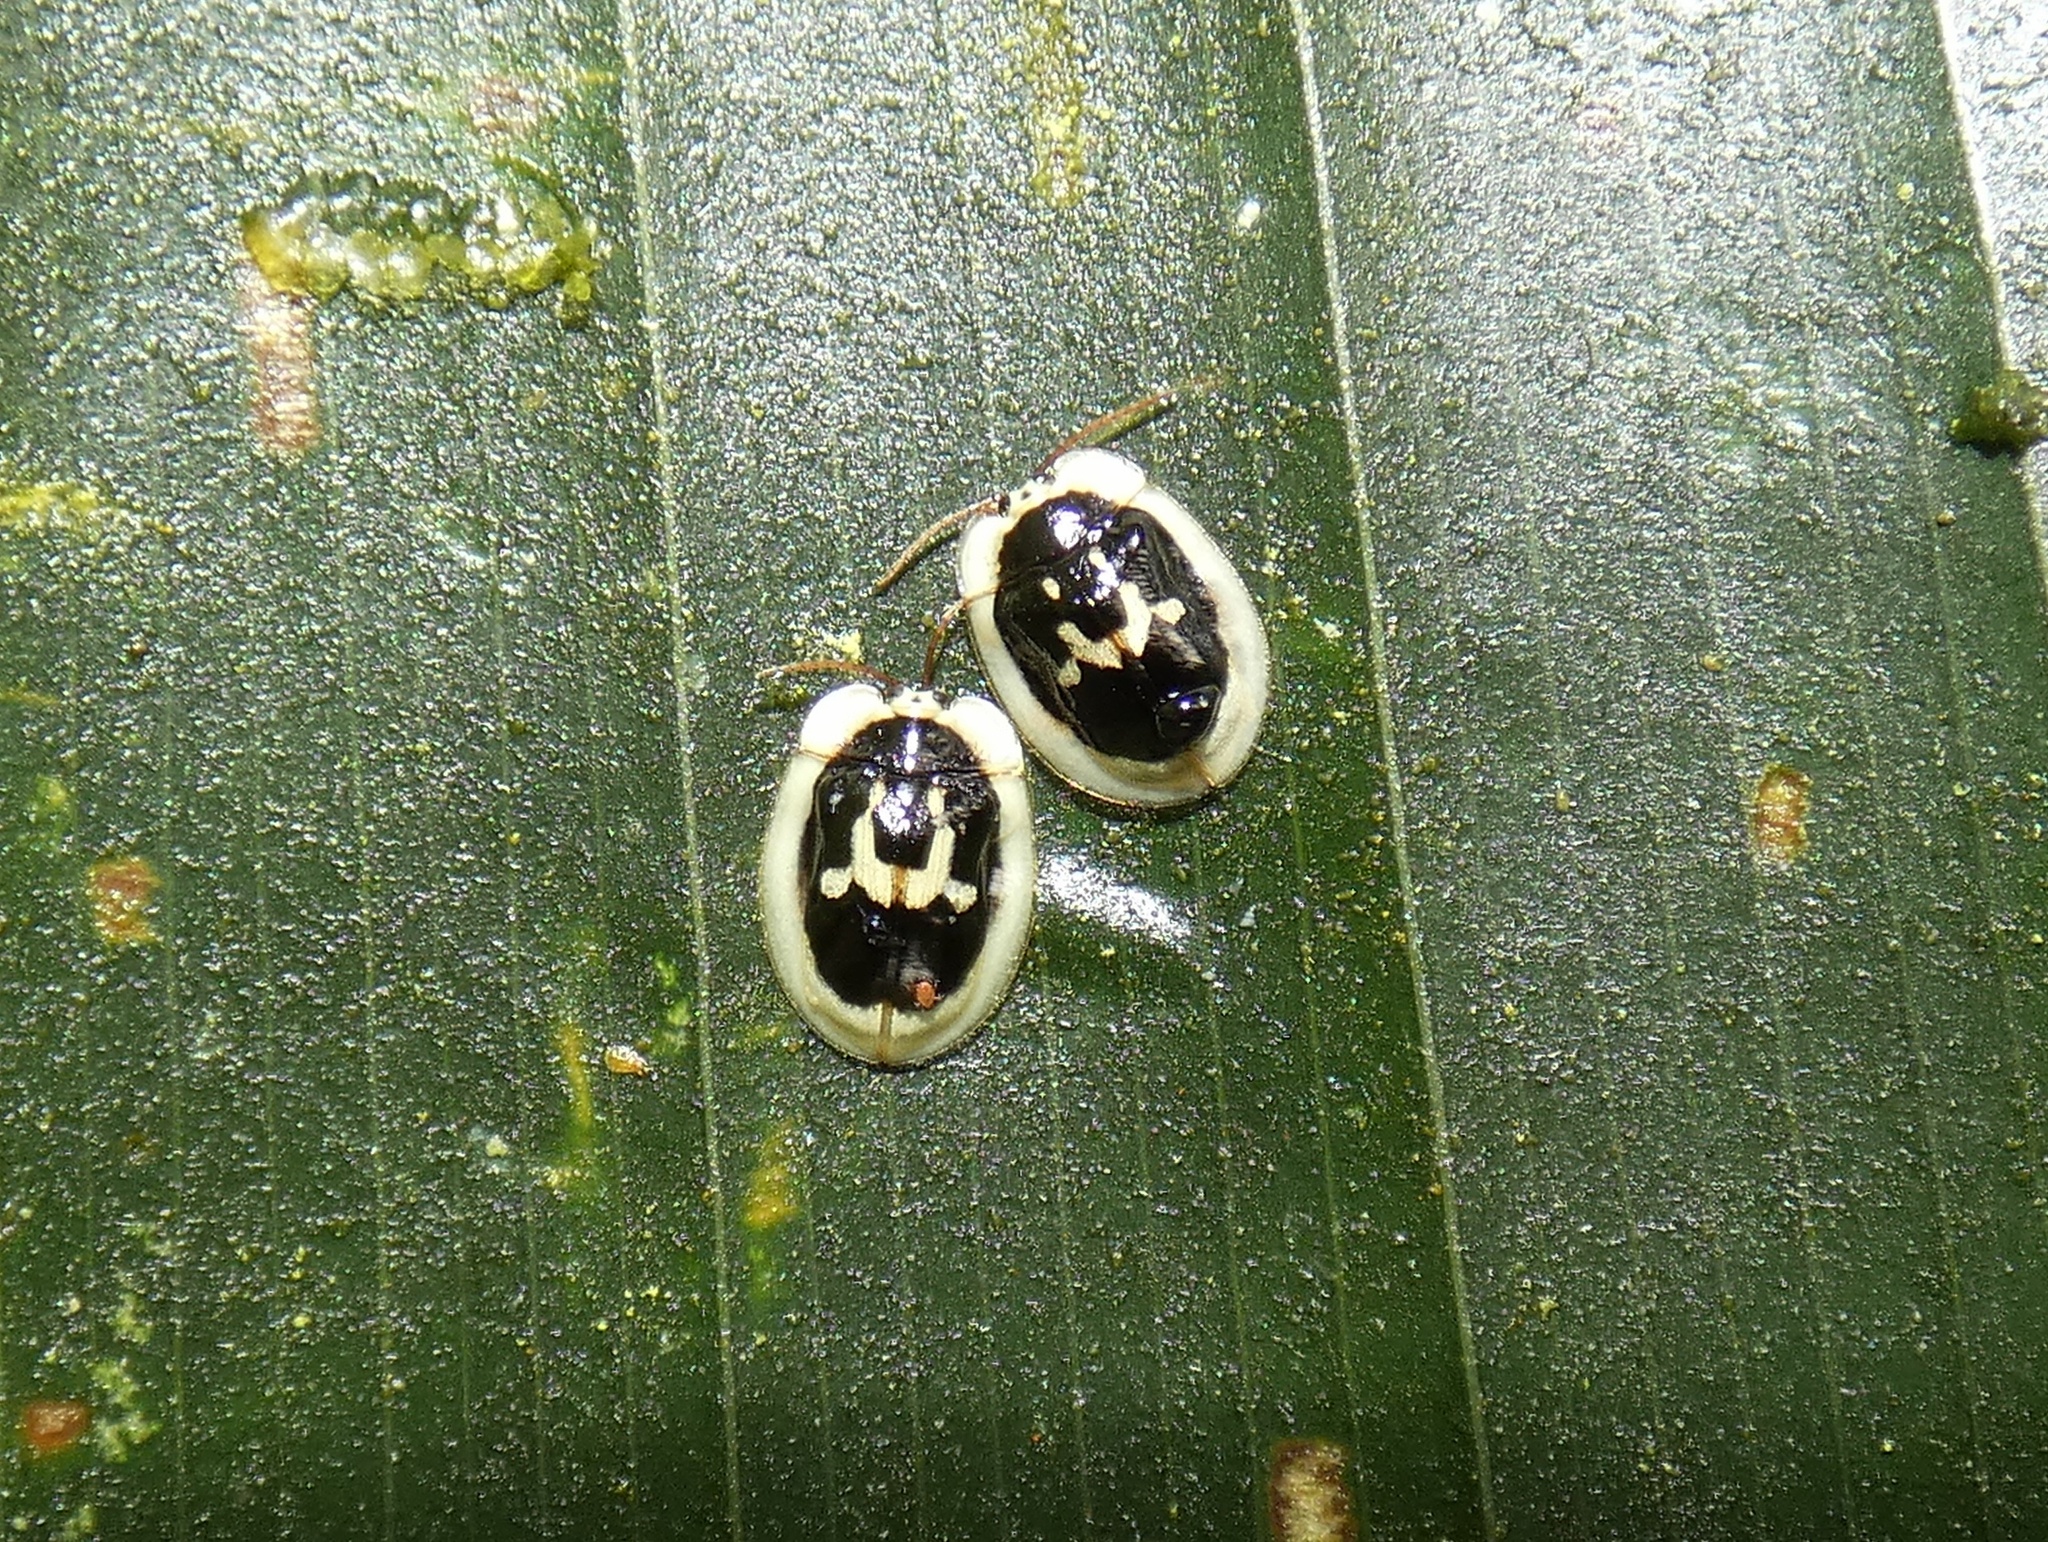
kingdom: Animalia
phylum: Arthropoda
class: Insecta
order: Coleoptera
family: Chrysomelidae
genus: Aslamidium
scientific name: Aslamidium semicirculare
